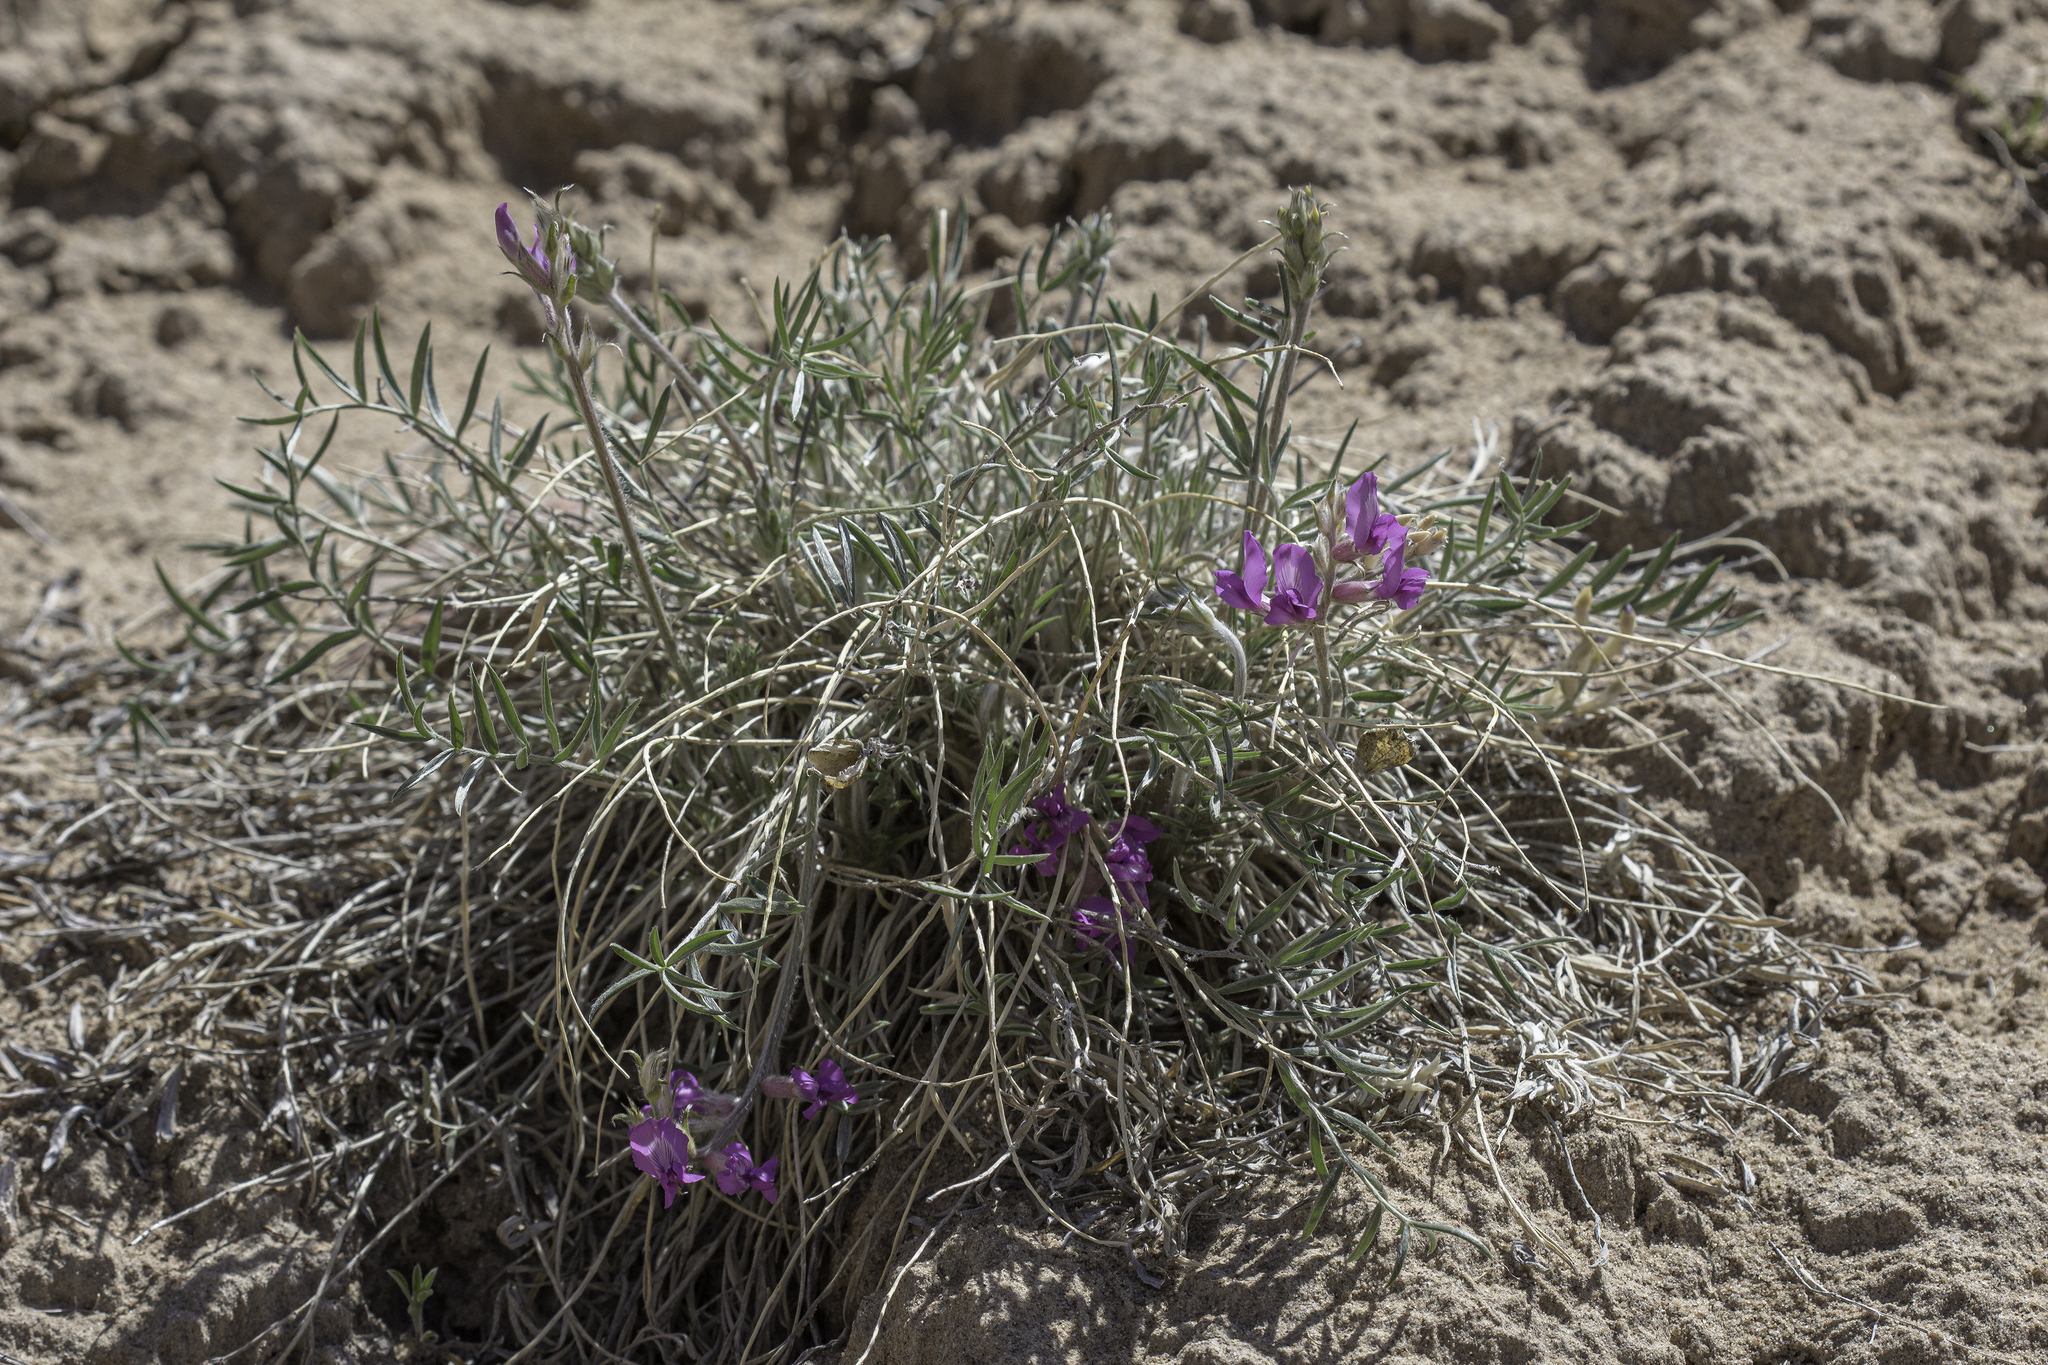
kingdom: Plantae
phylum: Tracheophyta
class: Magnoliopsida
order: Fabales
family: Fabaceae
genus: Oxytropis
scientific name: Oxytropis lambertii
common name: Purple locoweed
